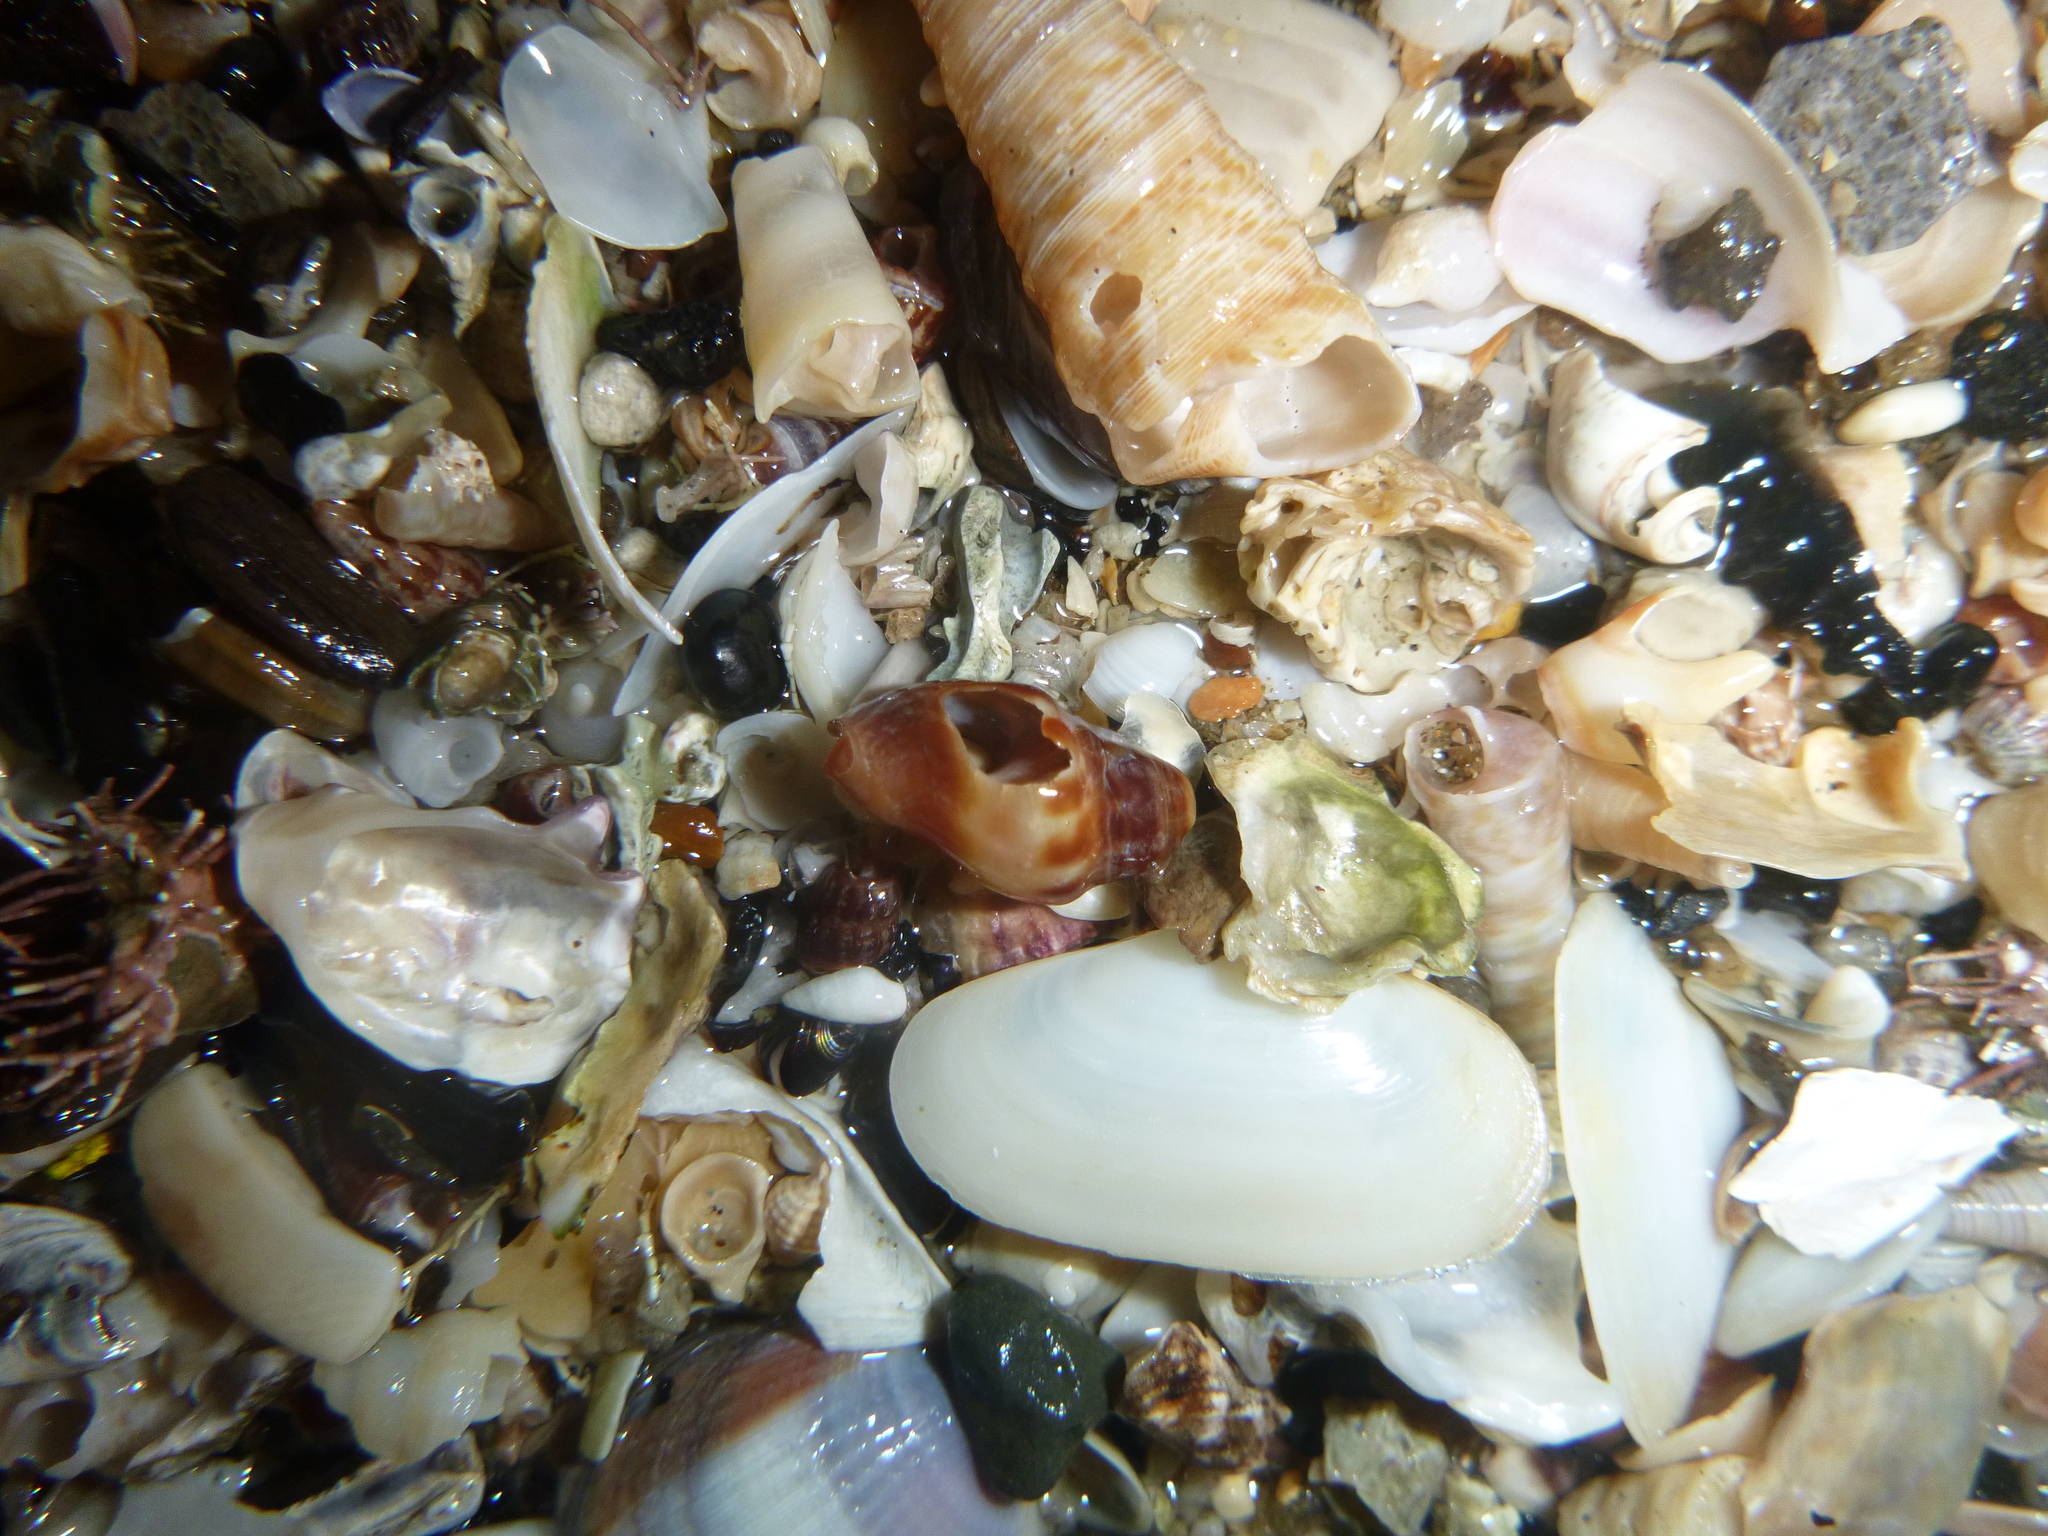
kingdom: Animalia
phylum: Mollusca
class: Gastropoda
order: Neogastropoda
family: Cominellidae
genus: Cominella
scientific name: Cominella glandiformis
